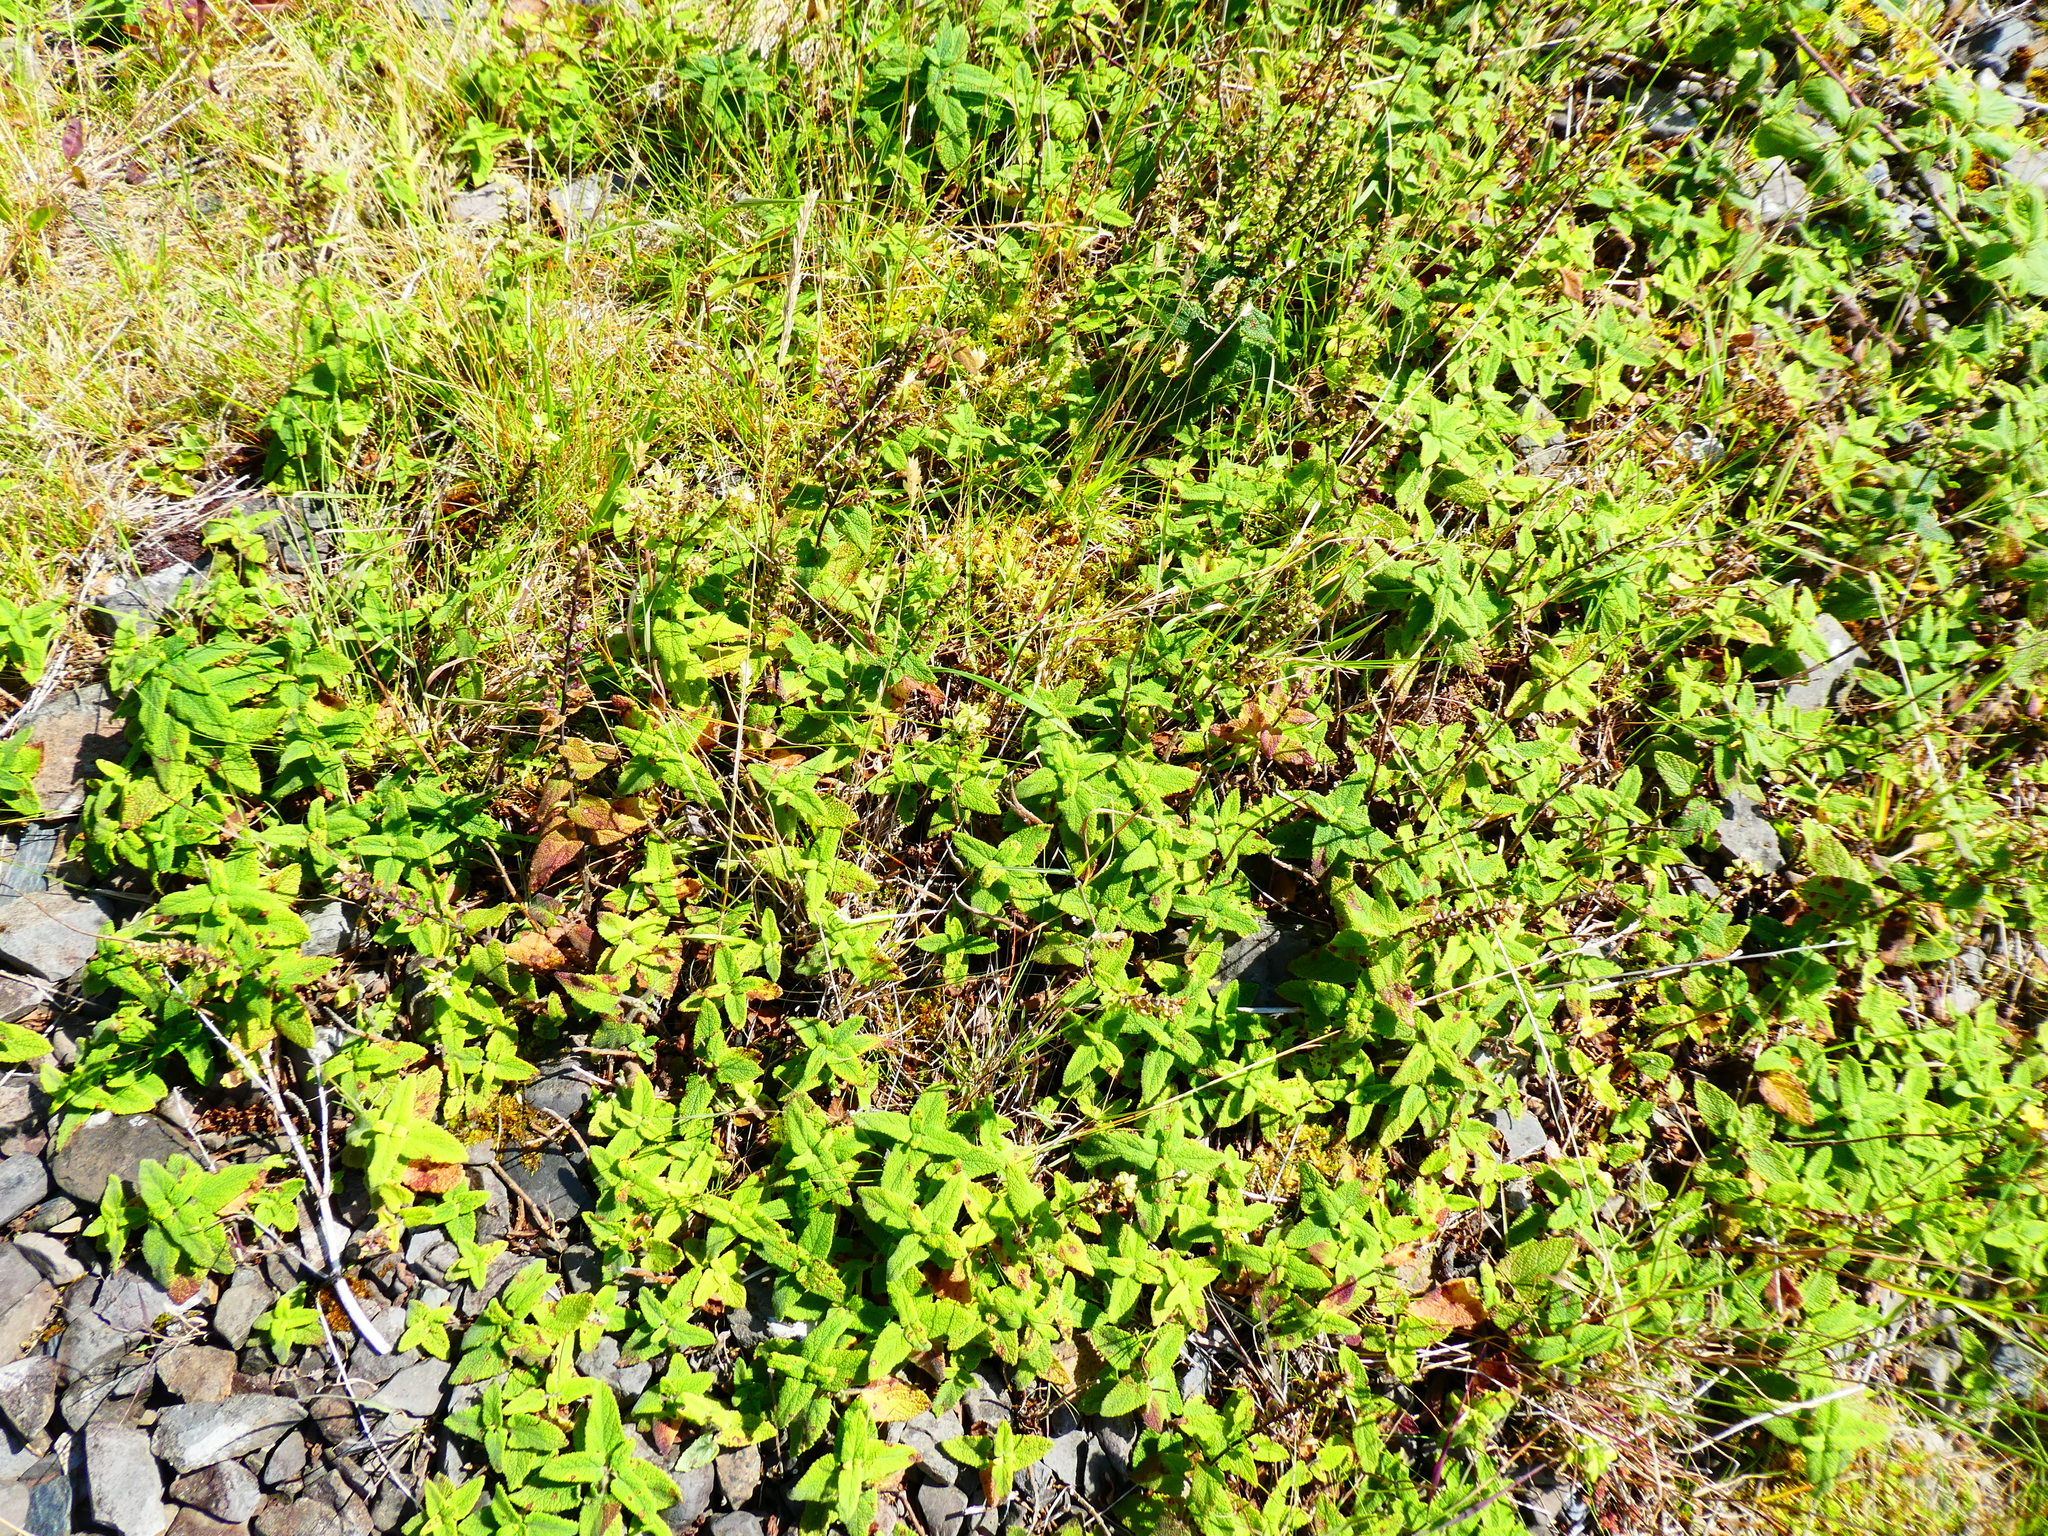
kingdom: Plantae
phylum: Tracheophyta
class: Magnoliopsida
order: Lamiales
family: Lamiaceae
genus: Teucrium
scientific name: Teucrium scorodonia
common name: Woodland germander
